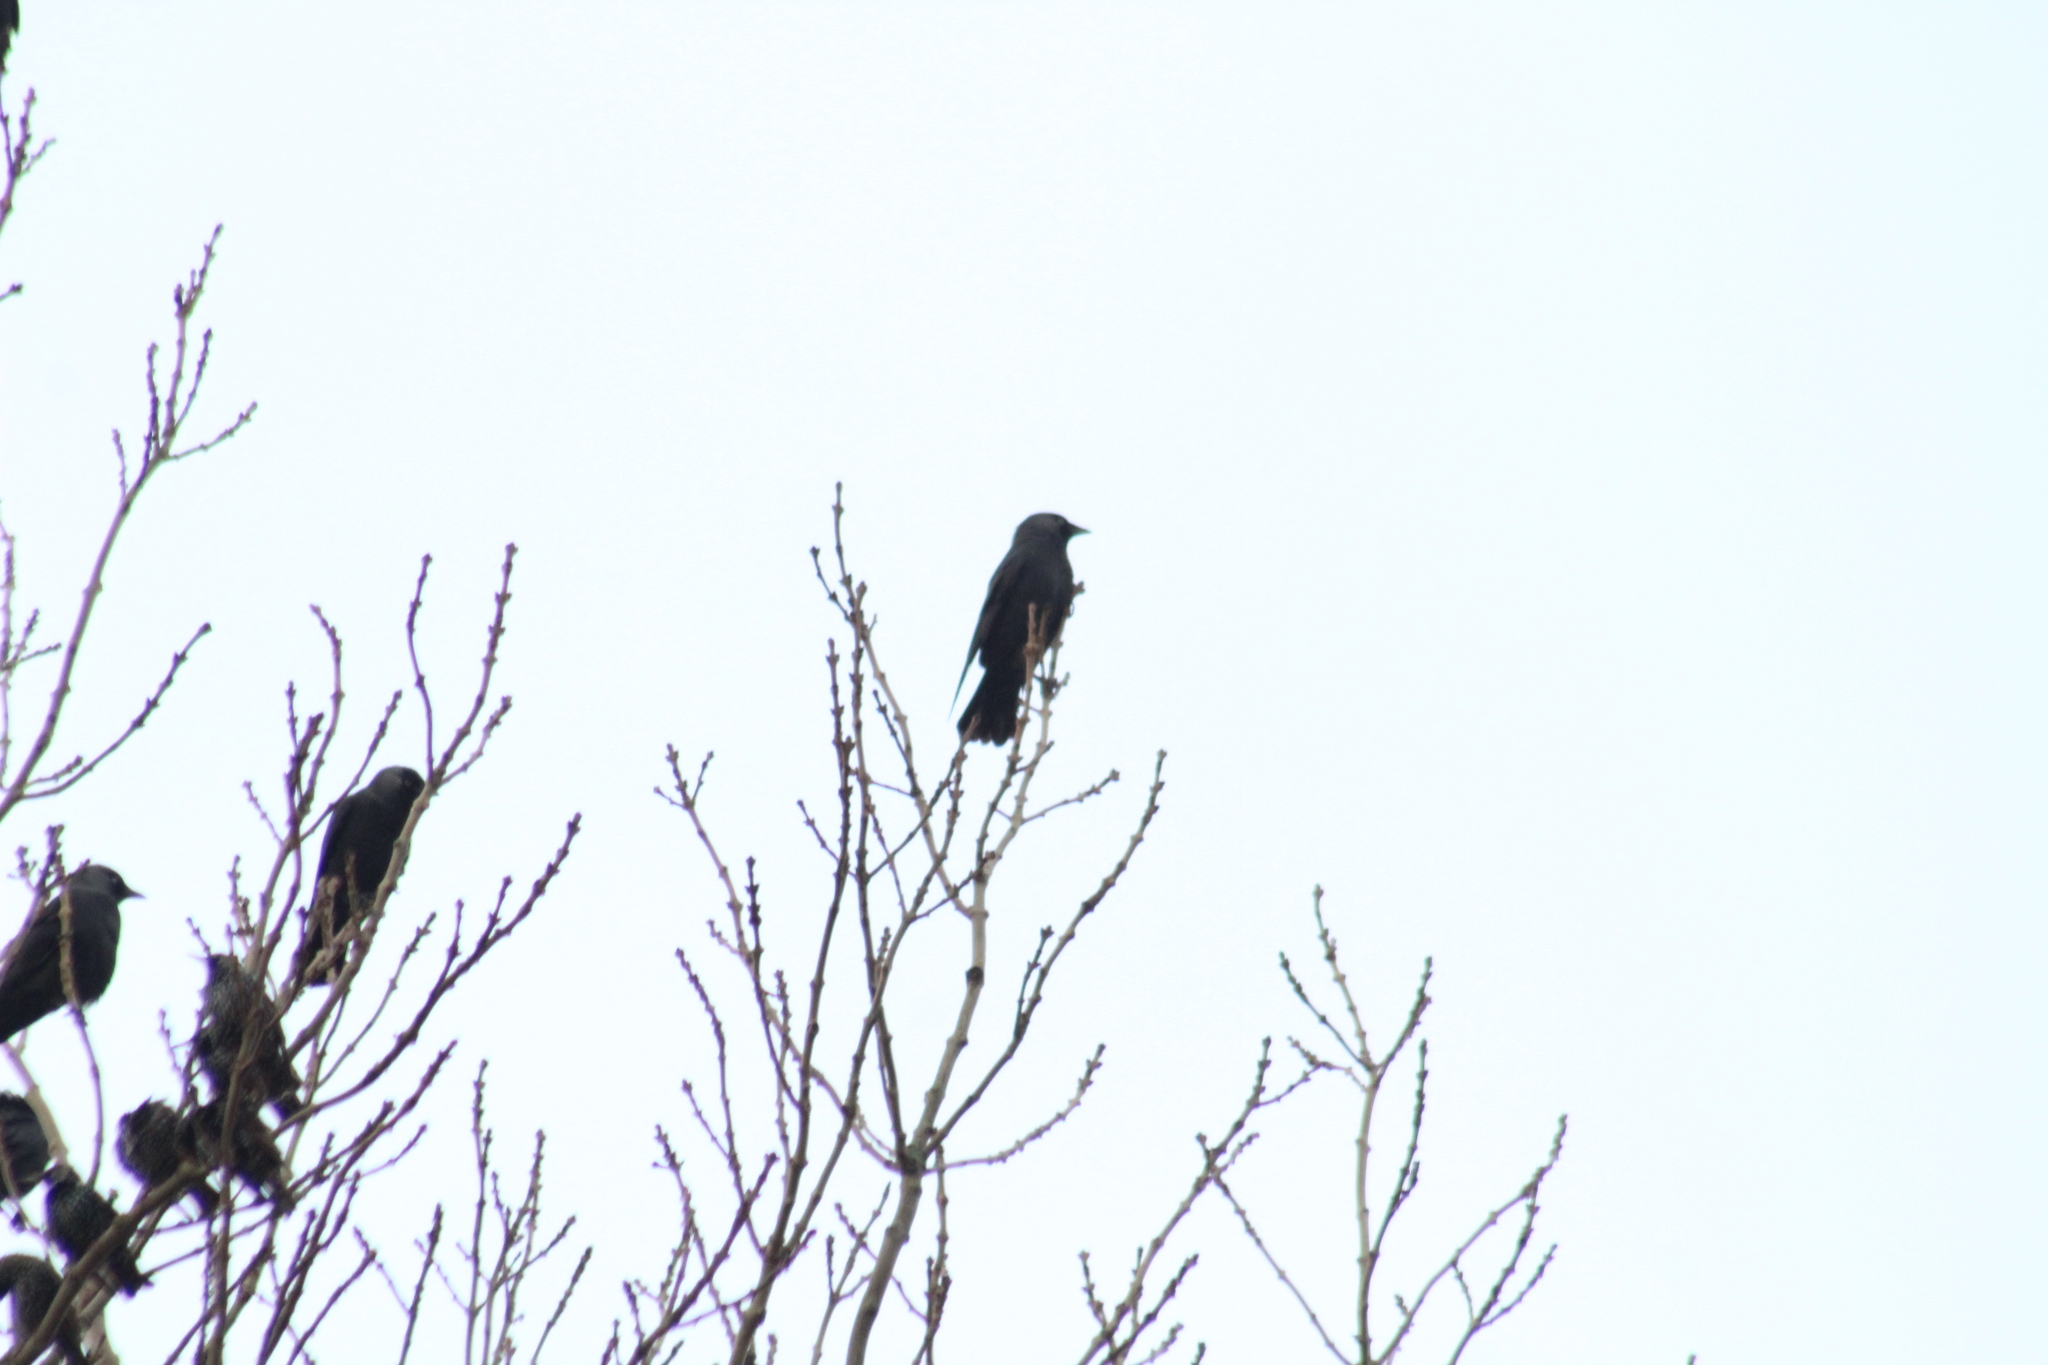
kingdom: Animalia
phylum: Chordata
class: Aves
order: Passeriformes
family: Corvidae
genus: Coloeus
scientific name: Coloeus monedula
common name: Western jackdaw
